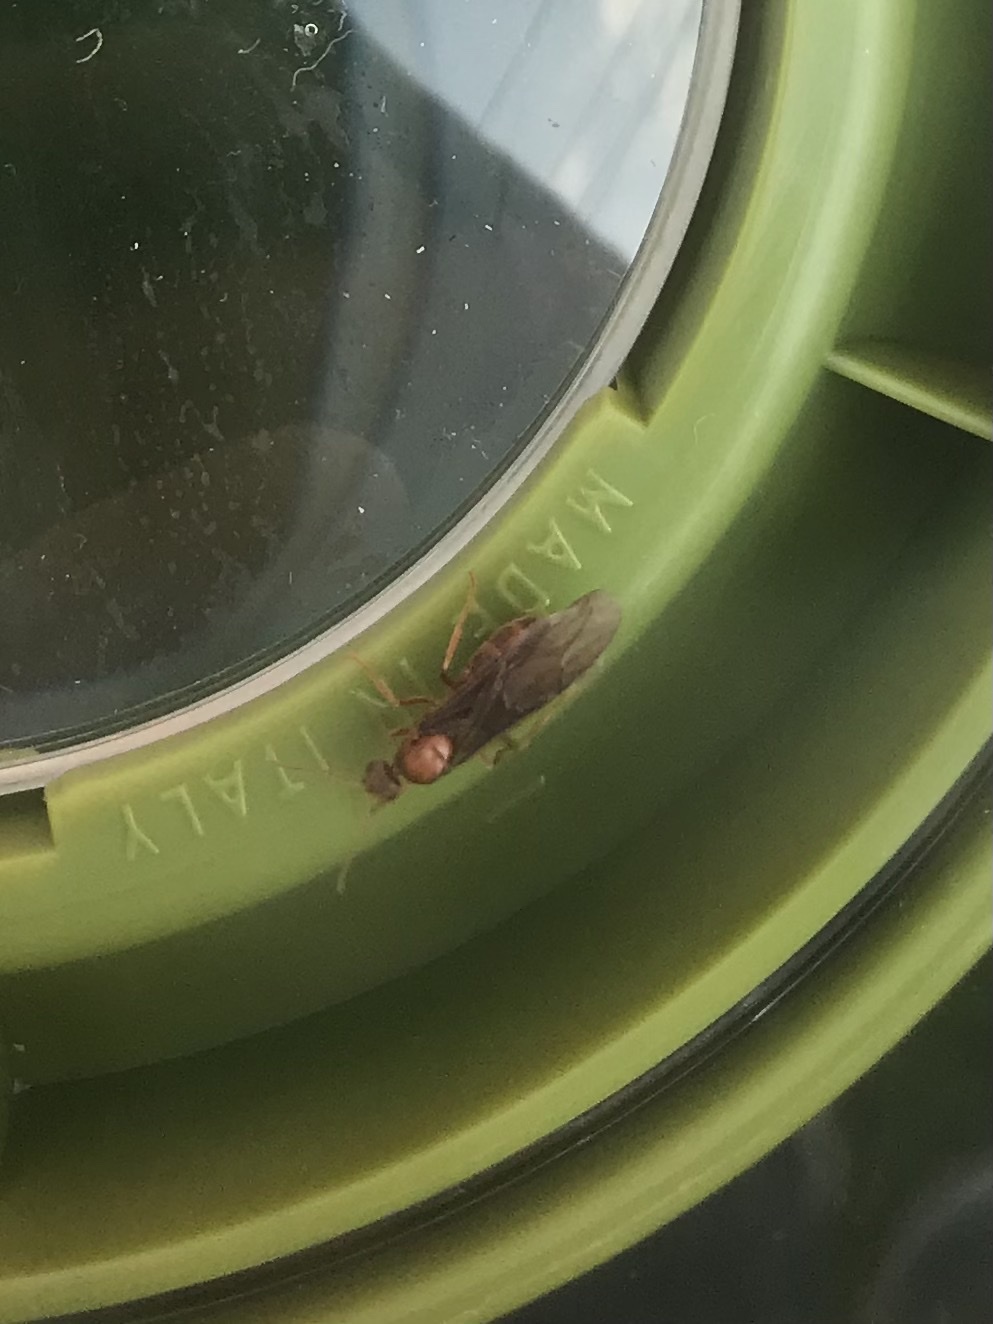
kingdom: Animalia
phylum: Arthropoda
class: Insecta
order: Hymenoptera
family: Formicidae
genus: Prenolepis
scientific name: Prenolepis imparis
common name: Small honey ant
